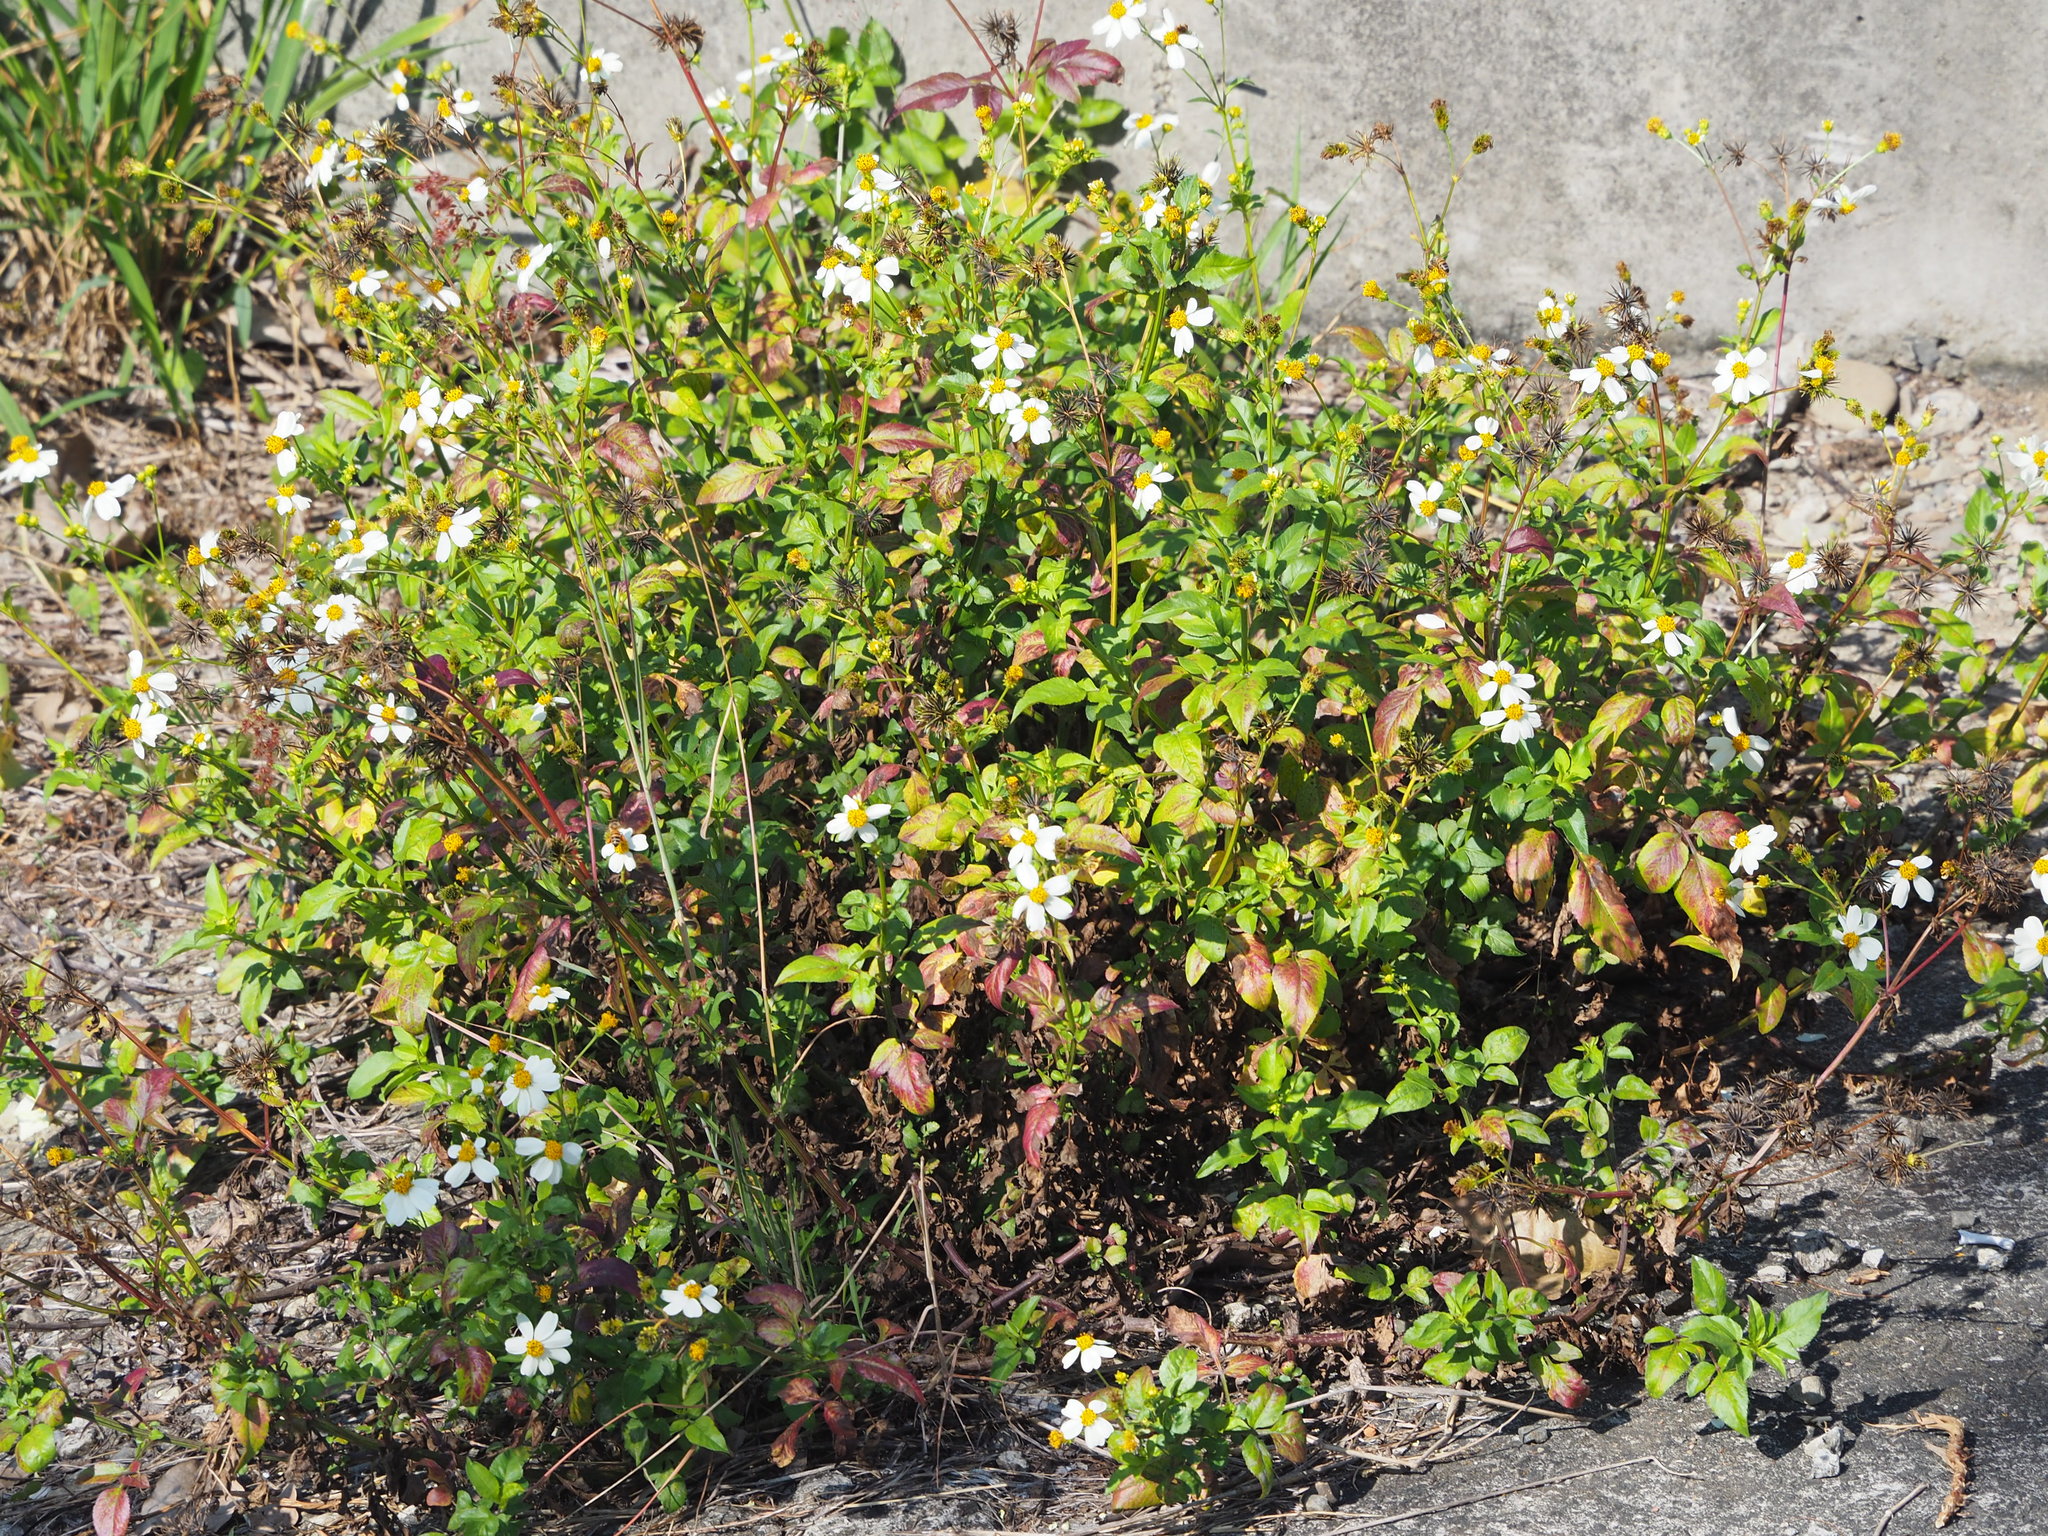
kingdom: Plantae
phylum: Tracheophyta
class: Magnoliopsida
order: Asterales
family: Asteraceae
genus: Bidens
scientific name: Bidens alba
